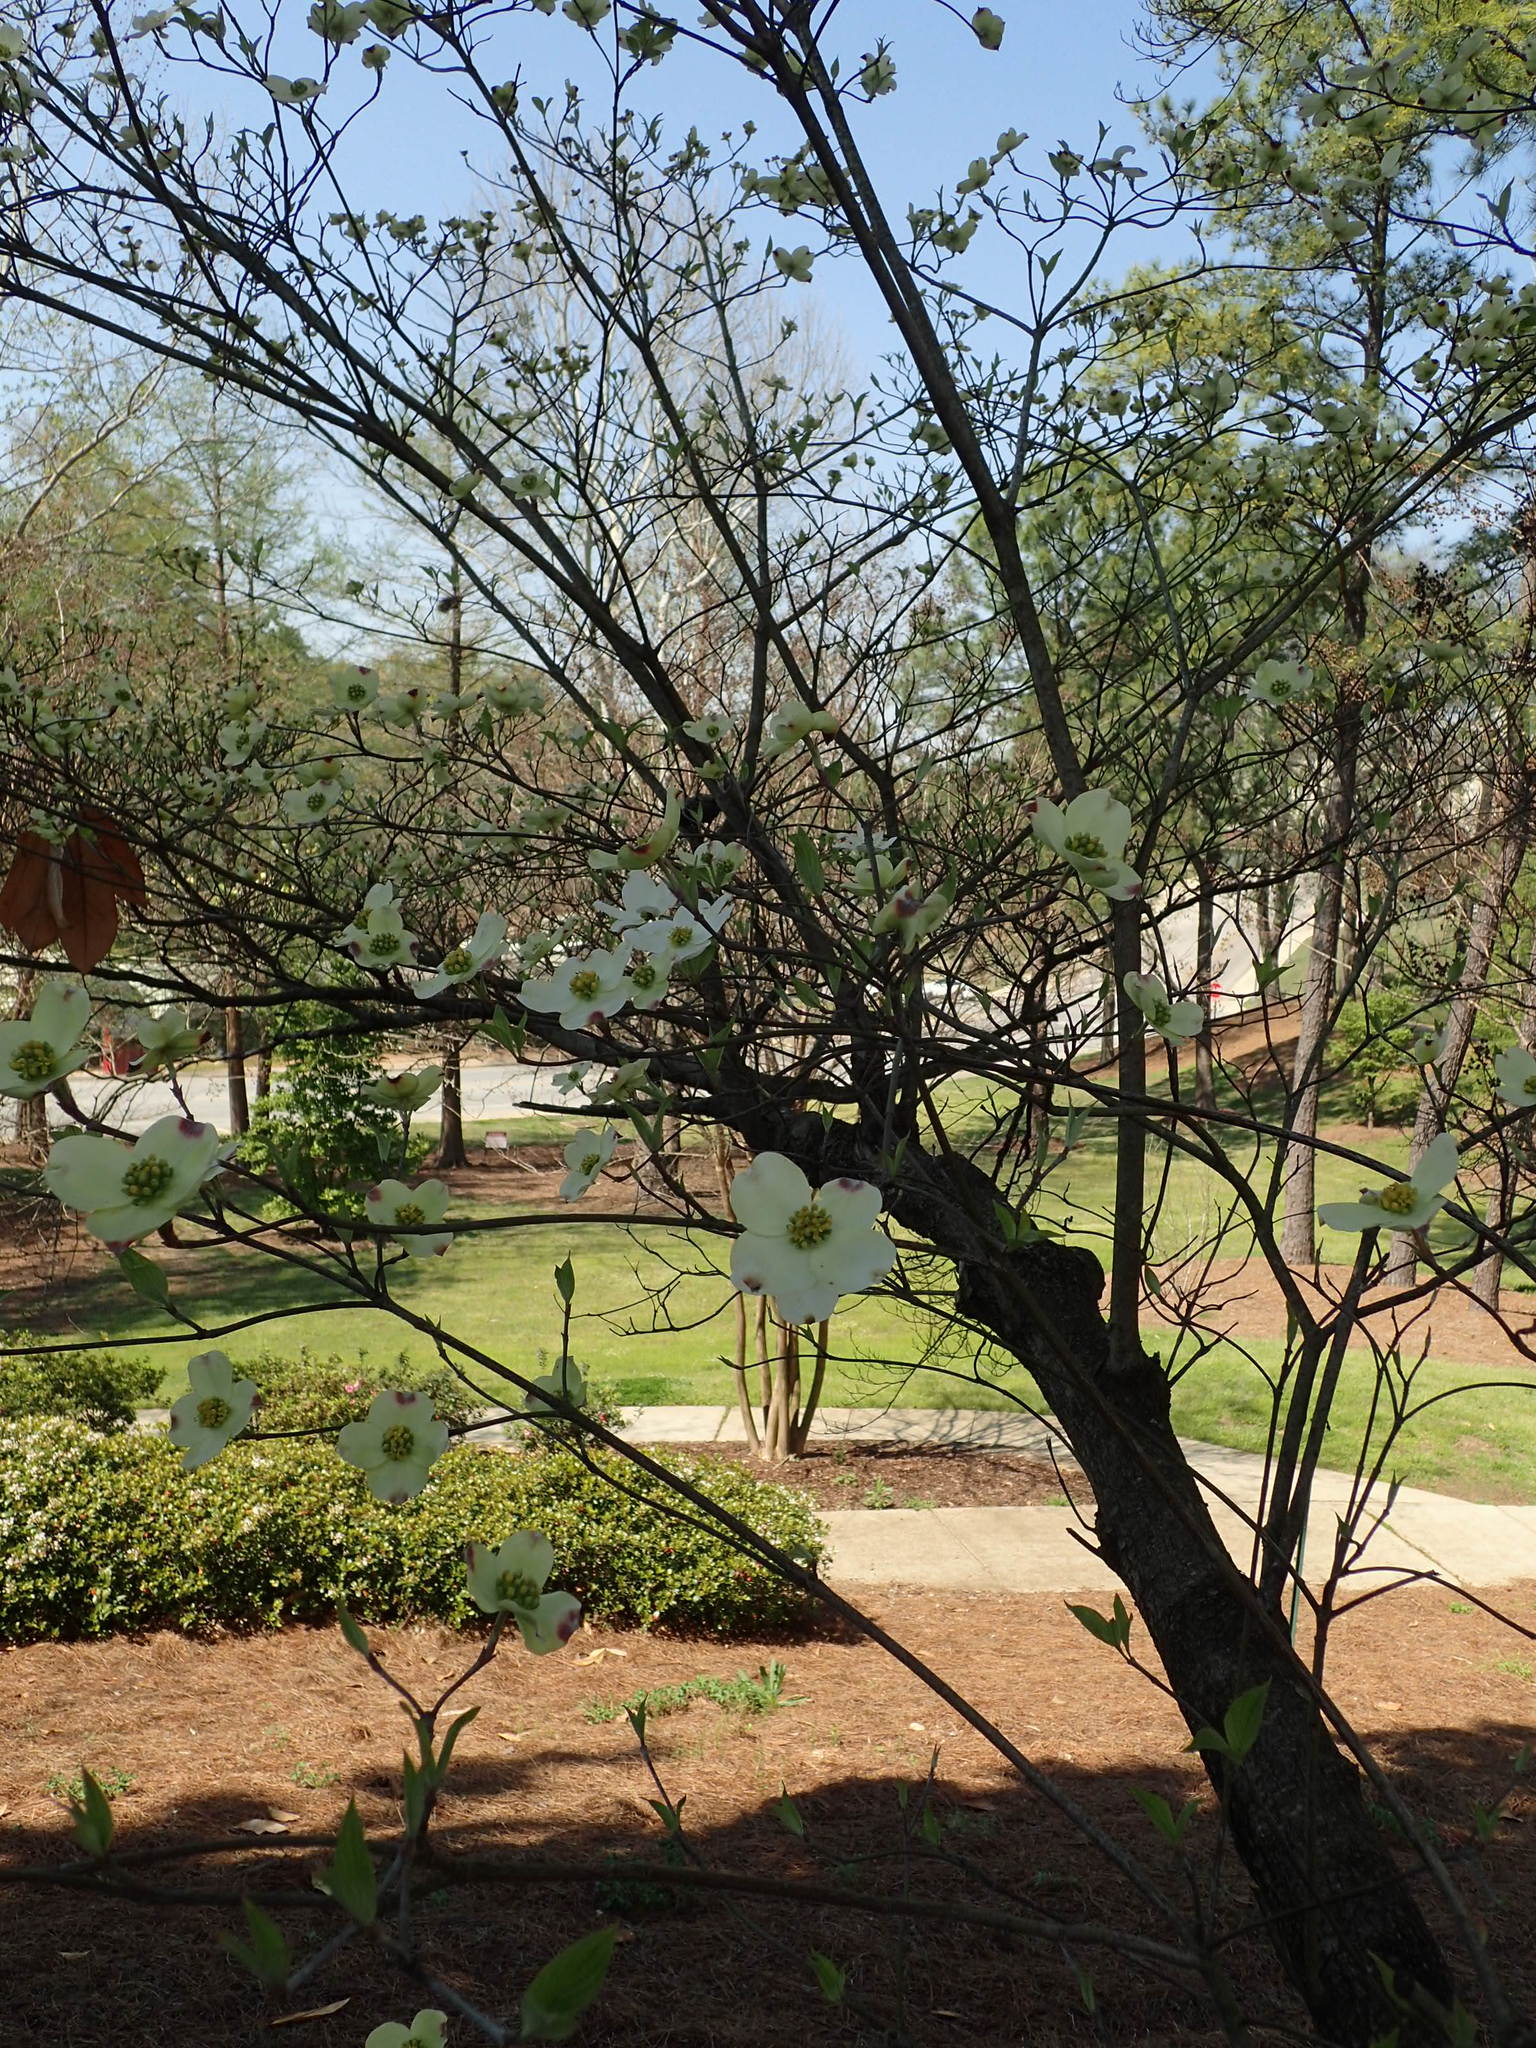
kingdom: Plantae
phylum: Tracheophyta
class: Magnoliopsida
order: Cornales
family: Cornaceae
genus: Cornus
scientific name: Cornus florida
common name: Flowering dogwood
